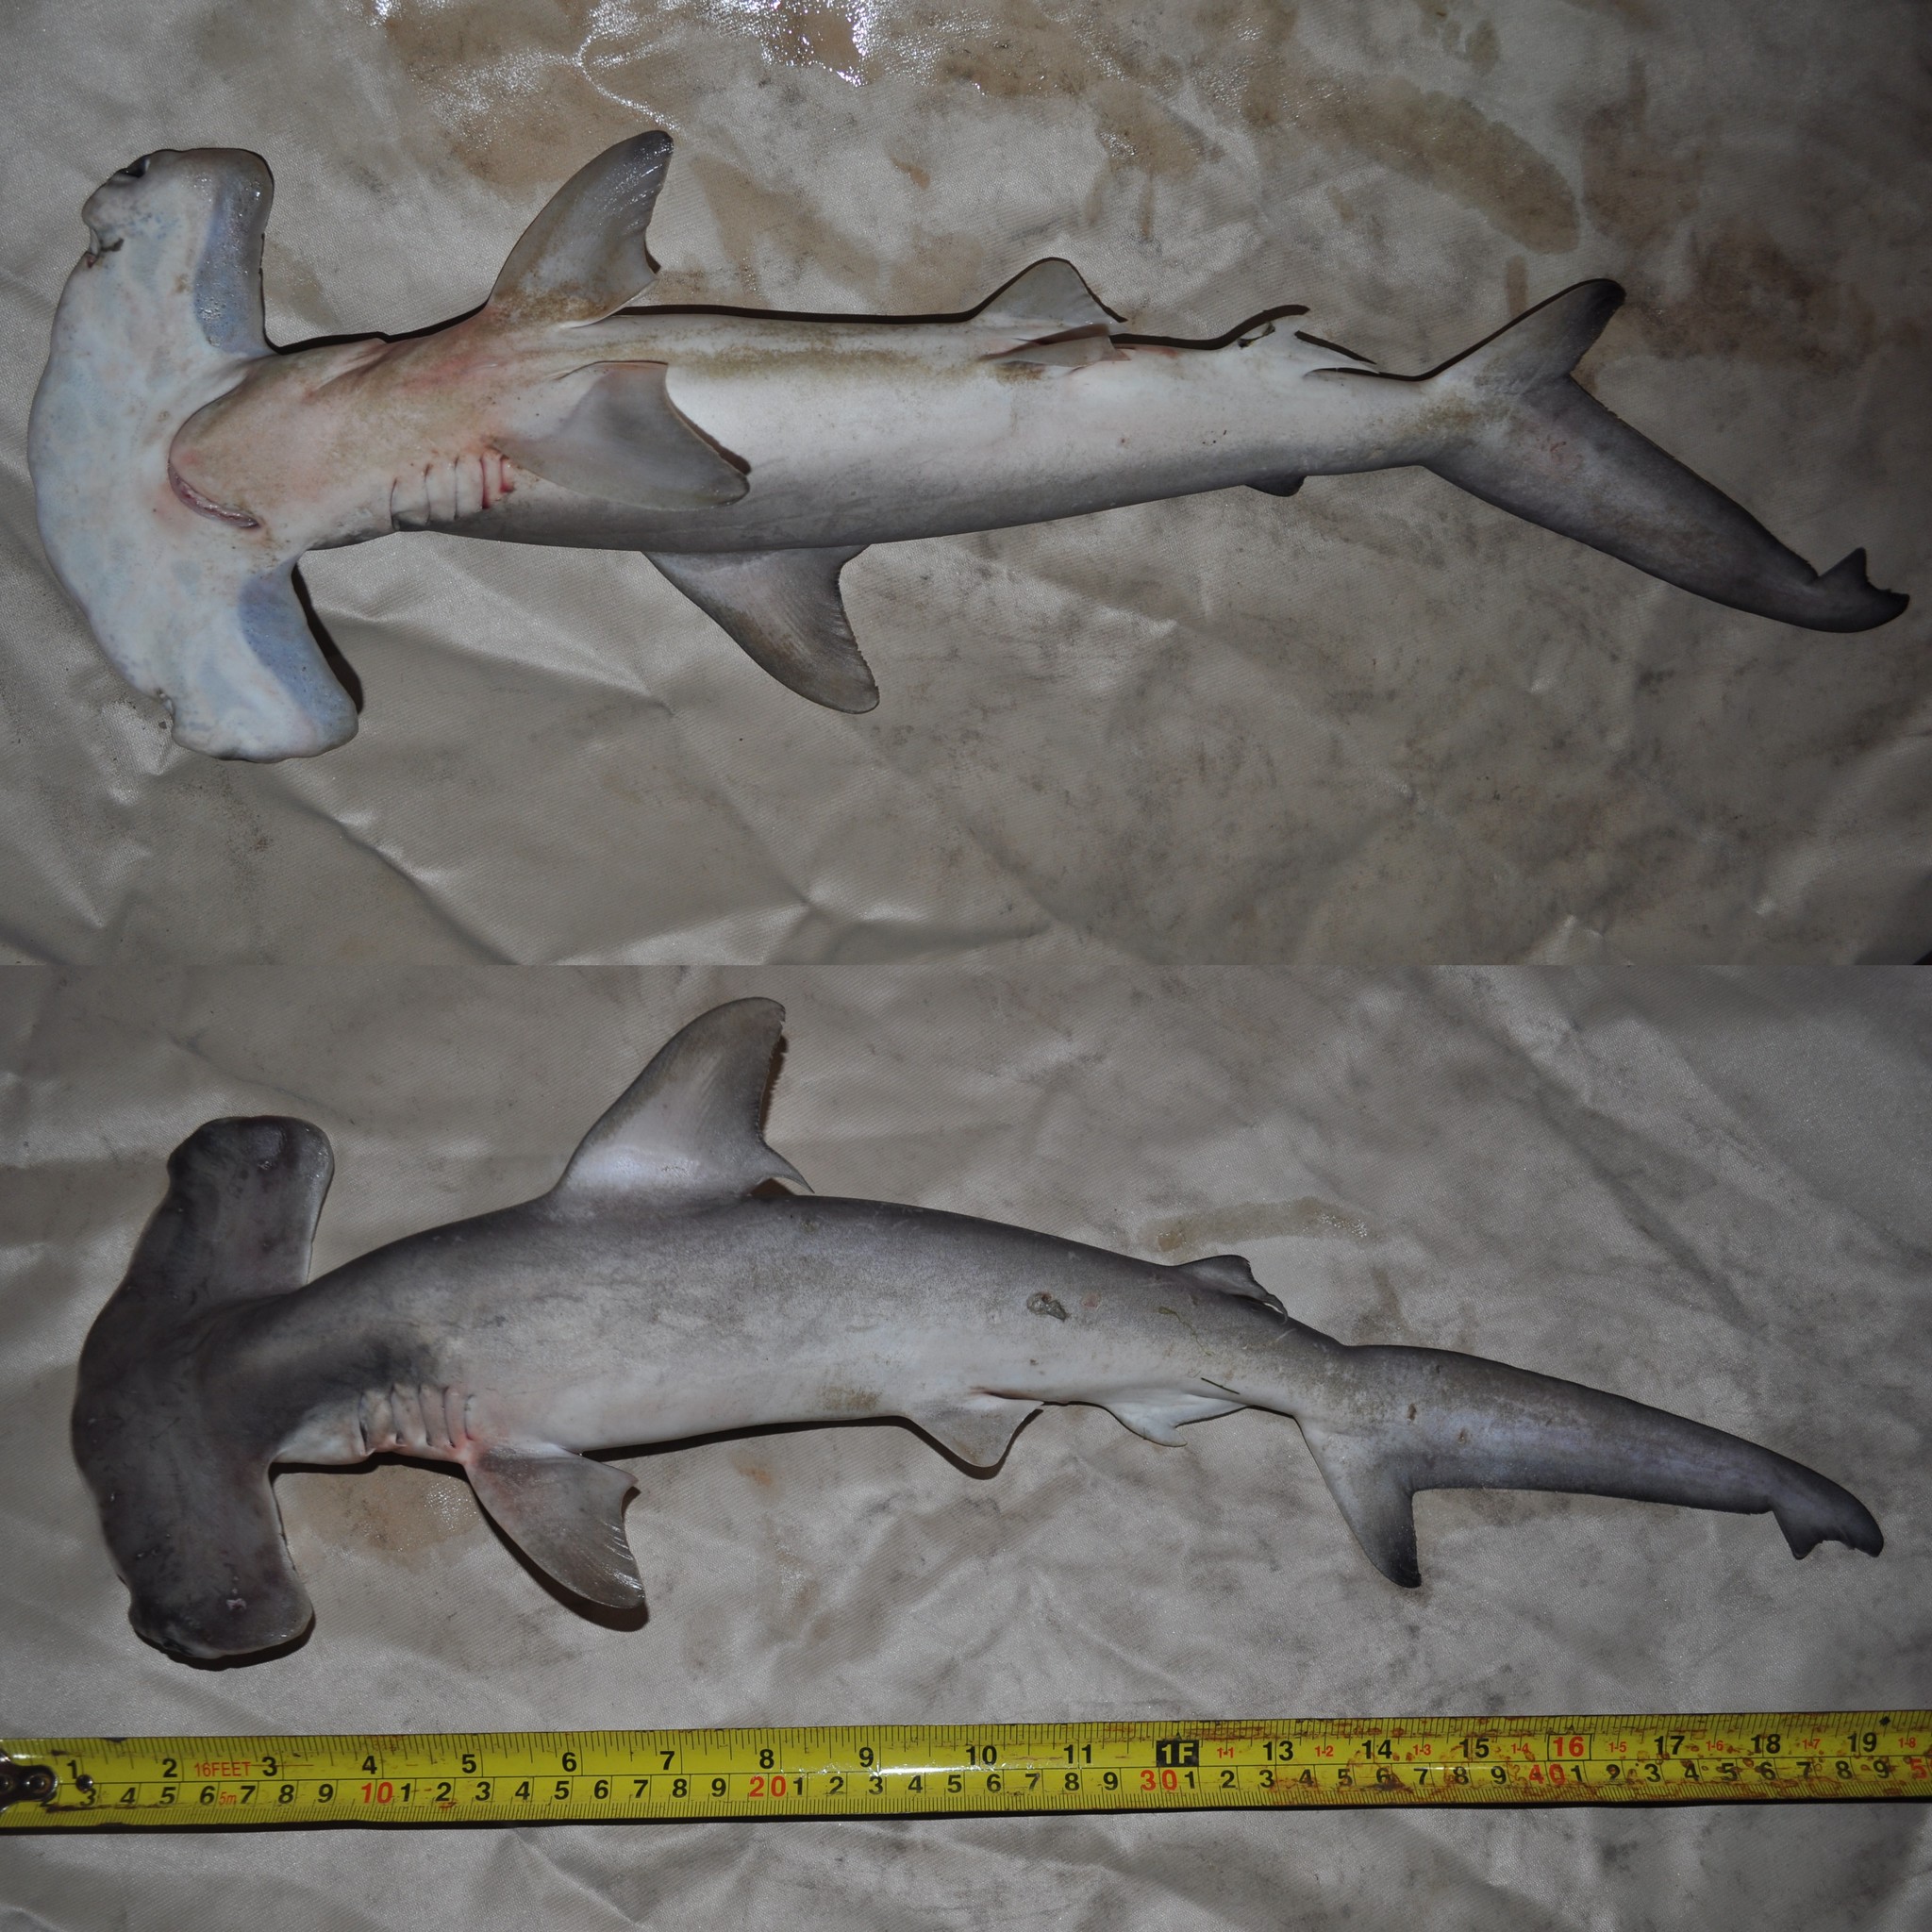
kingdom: Animalia
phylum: Chordata
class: Elasmobranchii
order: Carcharhiniformes
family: Sphyrnidae
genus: Sphyrna
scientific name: Sphyrna lewini
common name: Scalloped hammerhead
